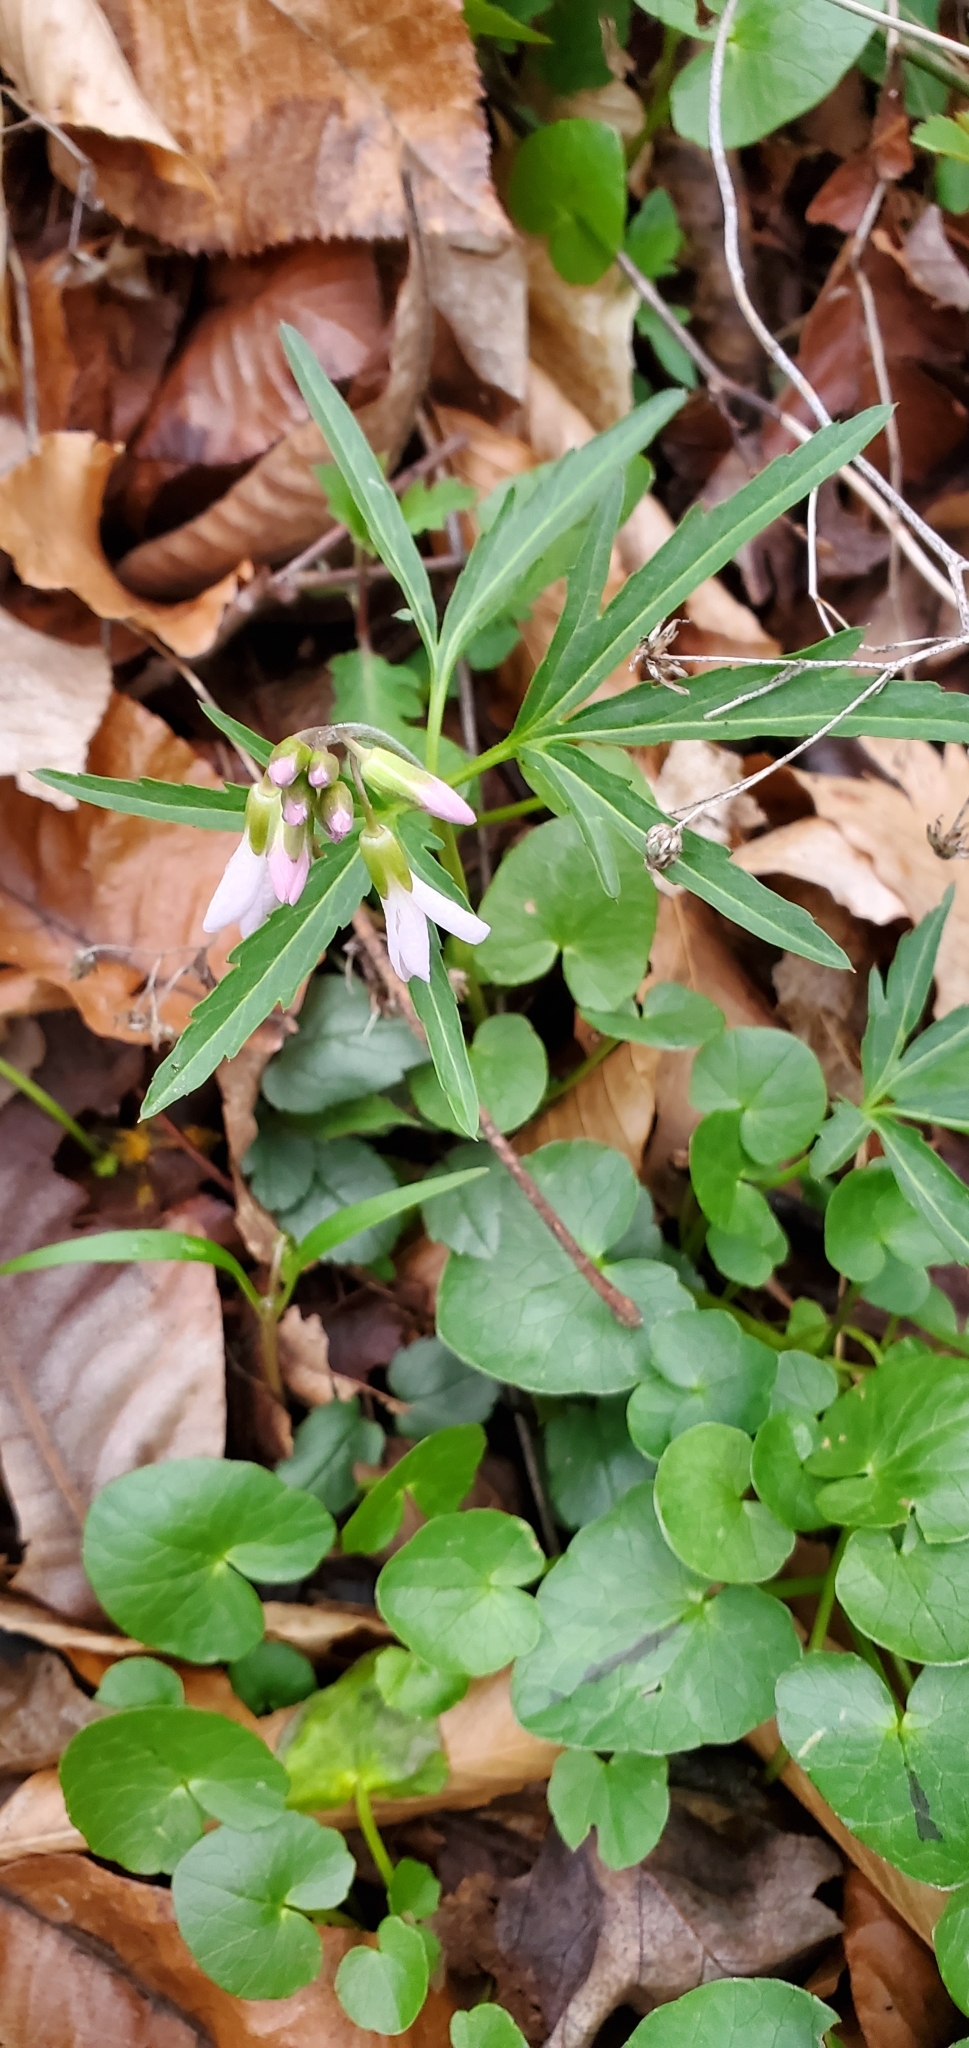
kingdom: Plantae
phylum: Tracheophyta
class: Magnoliopsida
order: Brassicales
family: Brassicaceae
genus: Cardamine
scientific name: Cardamine concatenata
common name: Cut-leaf toothcup
